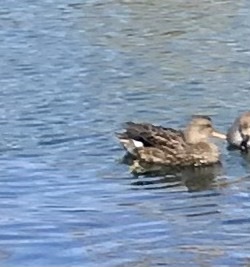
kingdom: Animalia
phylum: Chordata
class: Aves
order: Anseriformes
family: Anatidae
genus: Mareca
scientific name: Mareca strepera
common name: Gadwall
